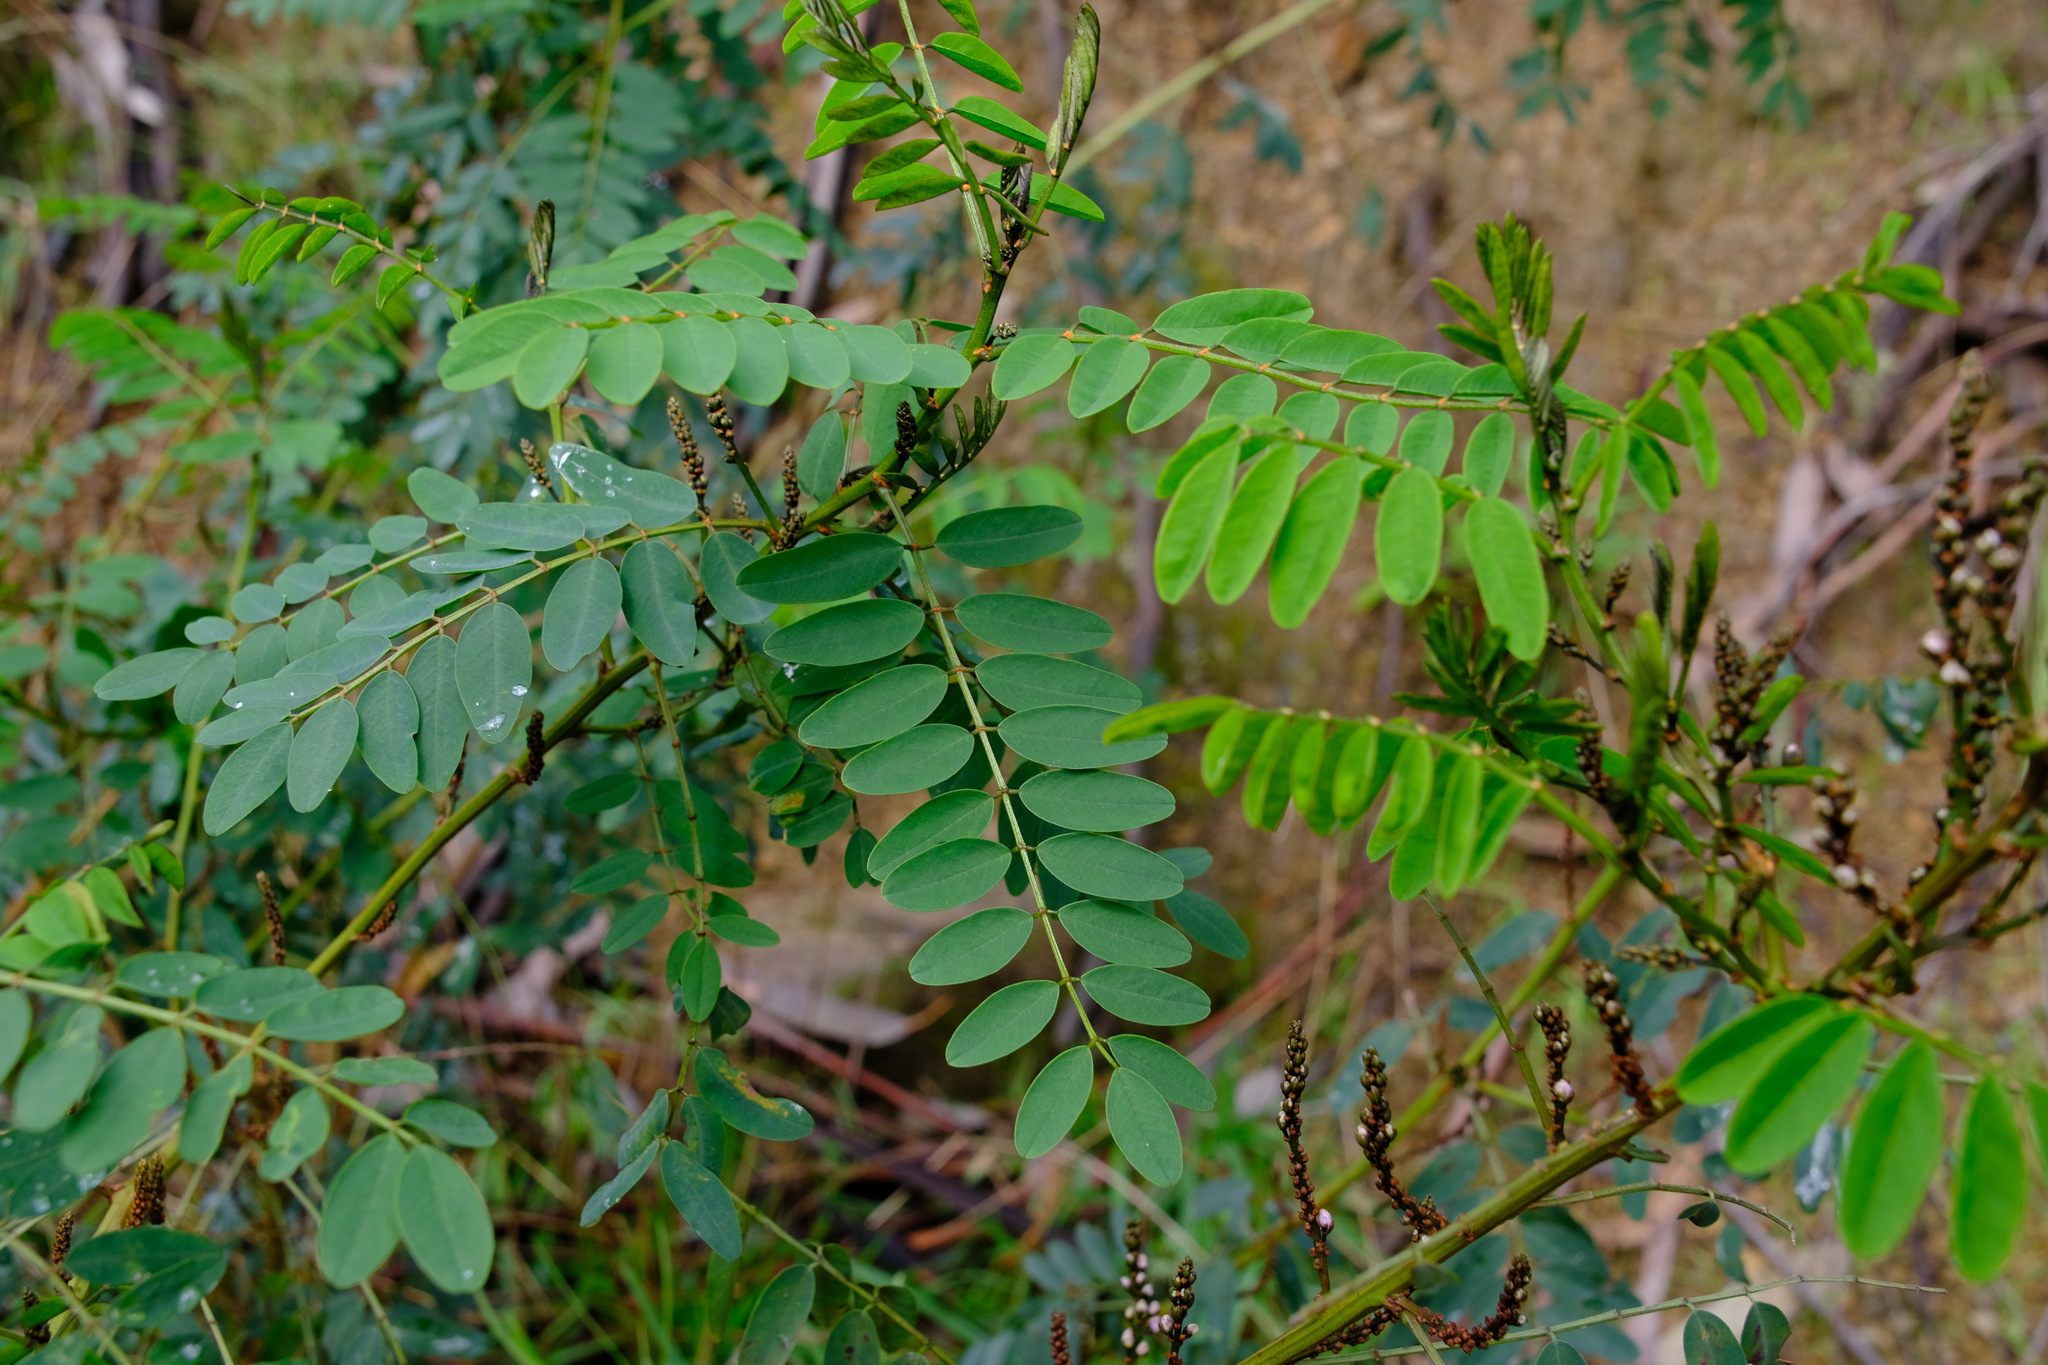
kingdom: Plantae
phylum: Tracheophyta
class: Magnoliopsida
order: Fabales
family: Fabaceae
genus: Indigofera
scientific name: Indigofera australis
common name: Australian indigo
